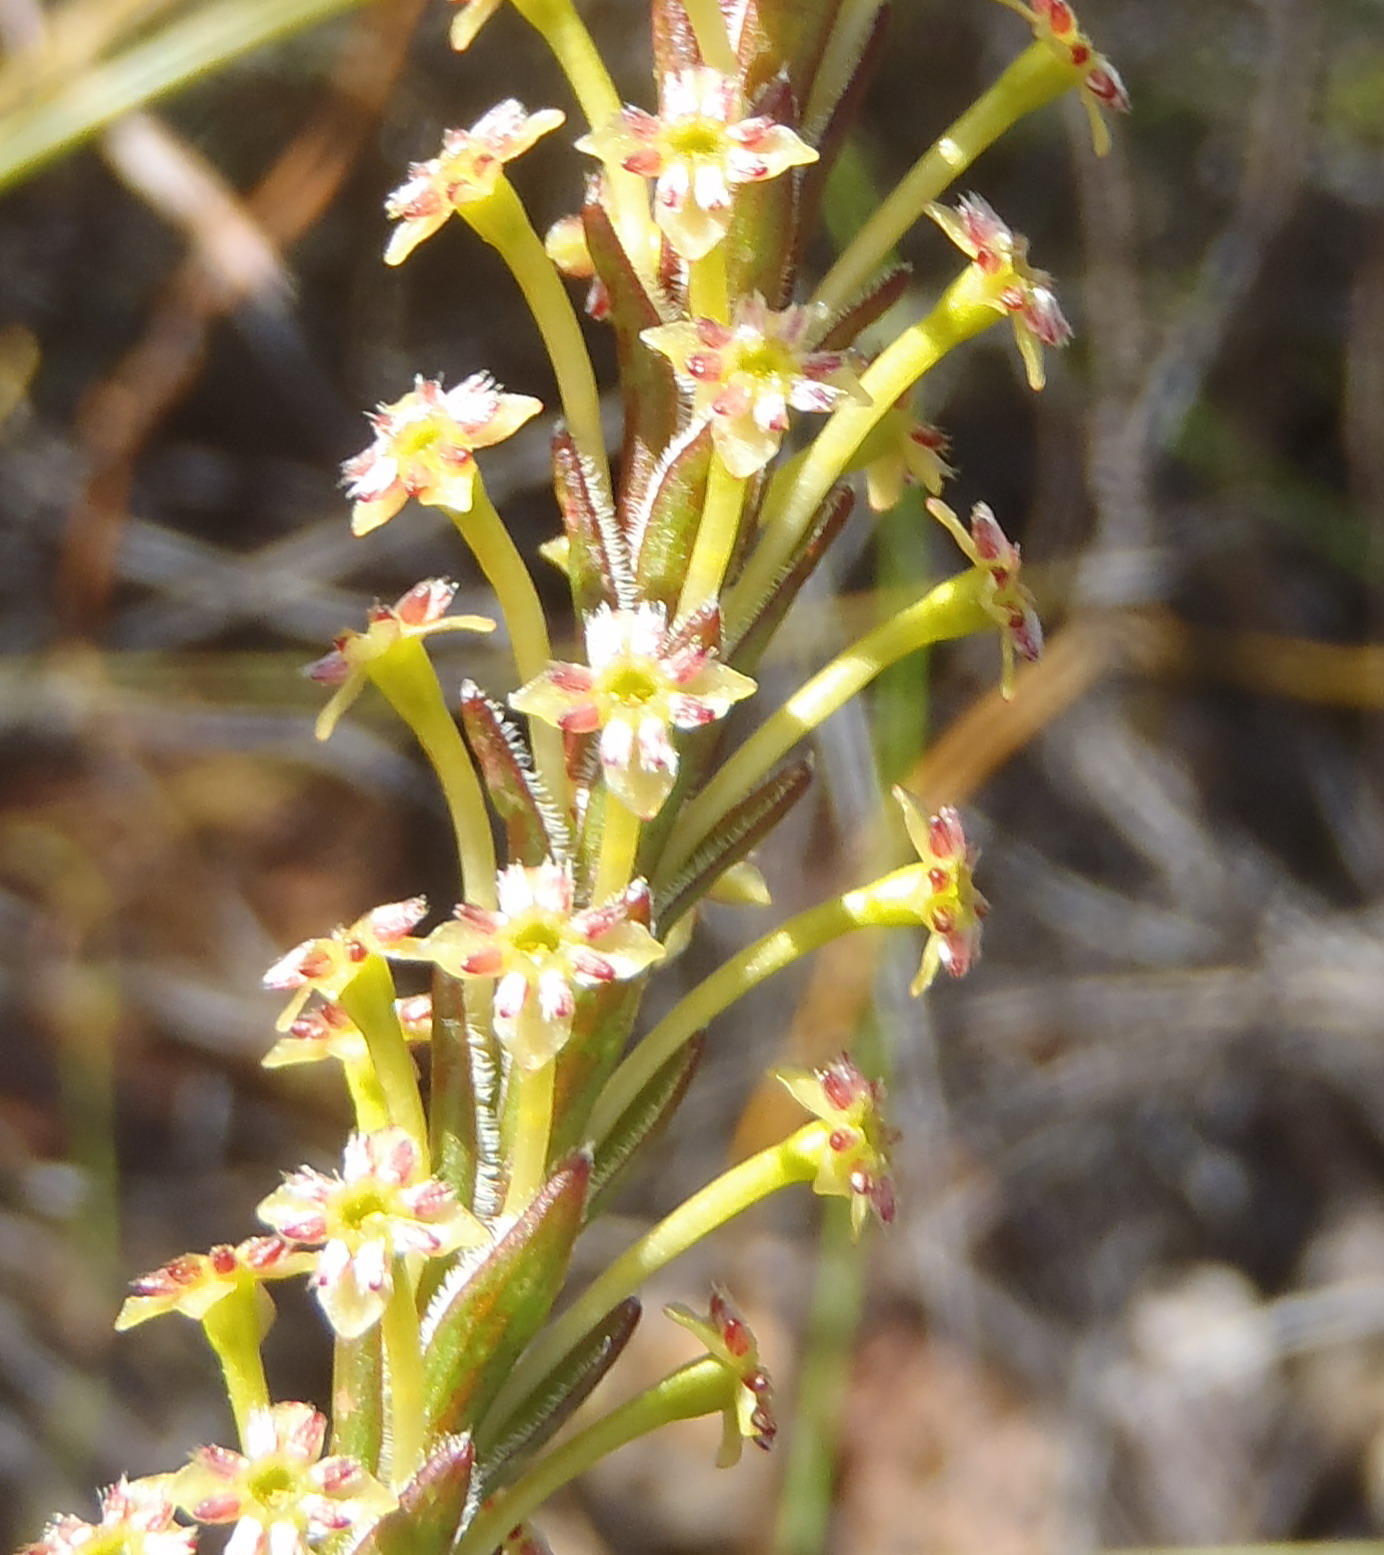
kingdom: Plantae
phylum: Tracheophyta
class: Magnoliopsida
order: Malvales
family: Thymelaeaceae
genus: Struthiola
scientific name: Struthiola eckloniana
